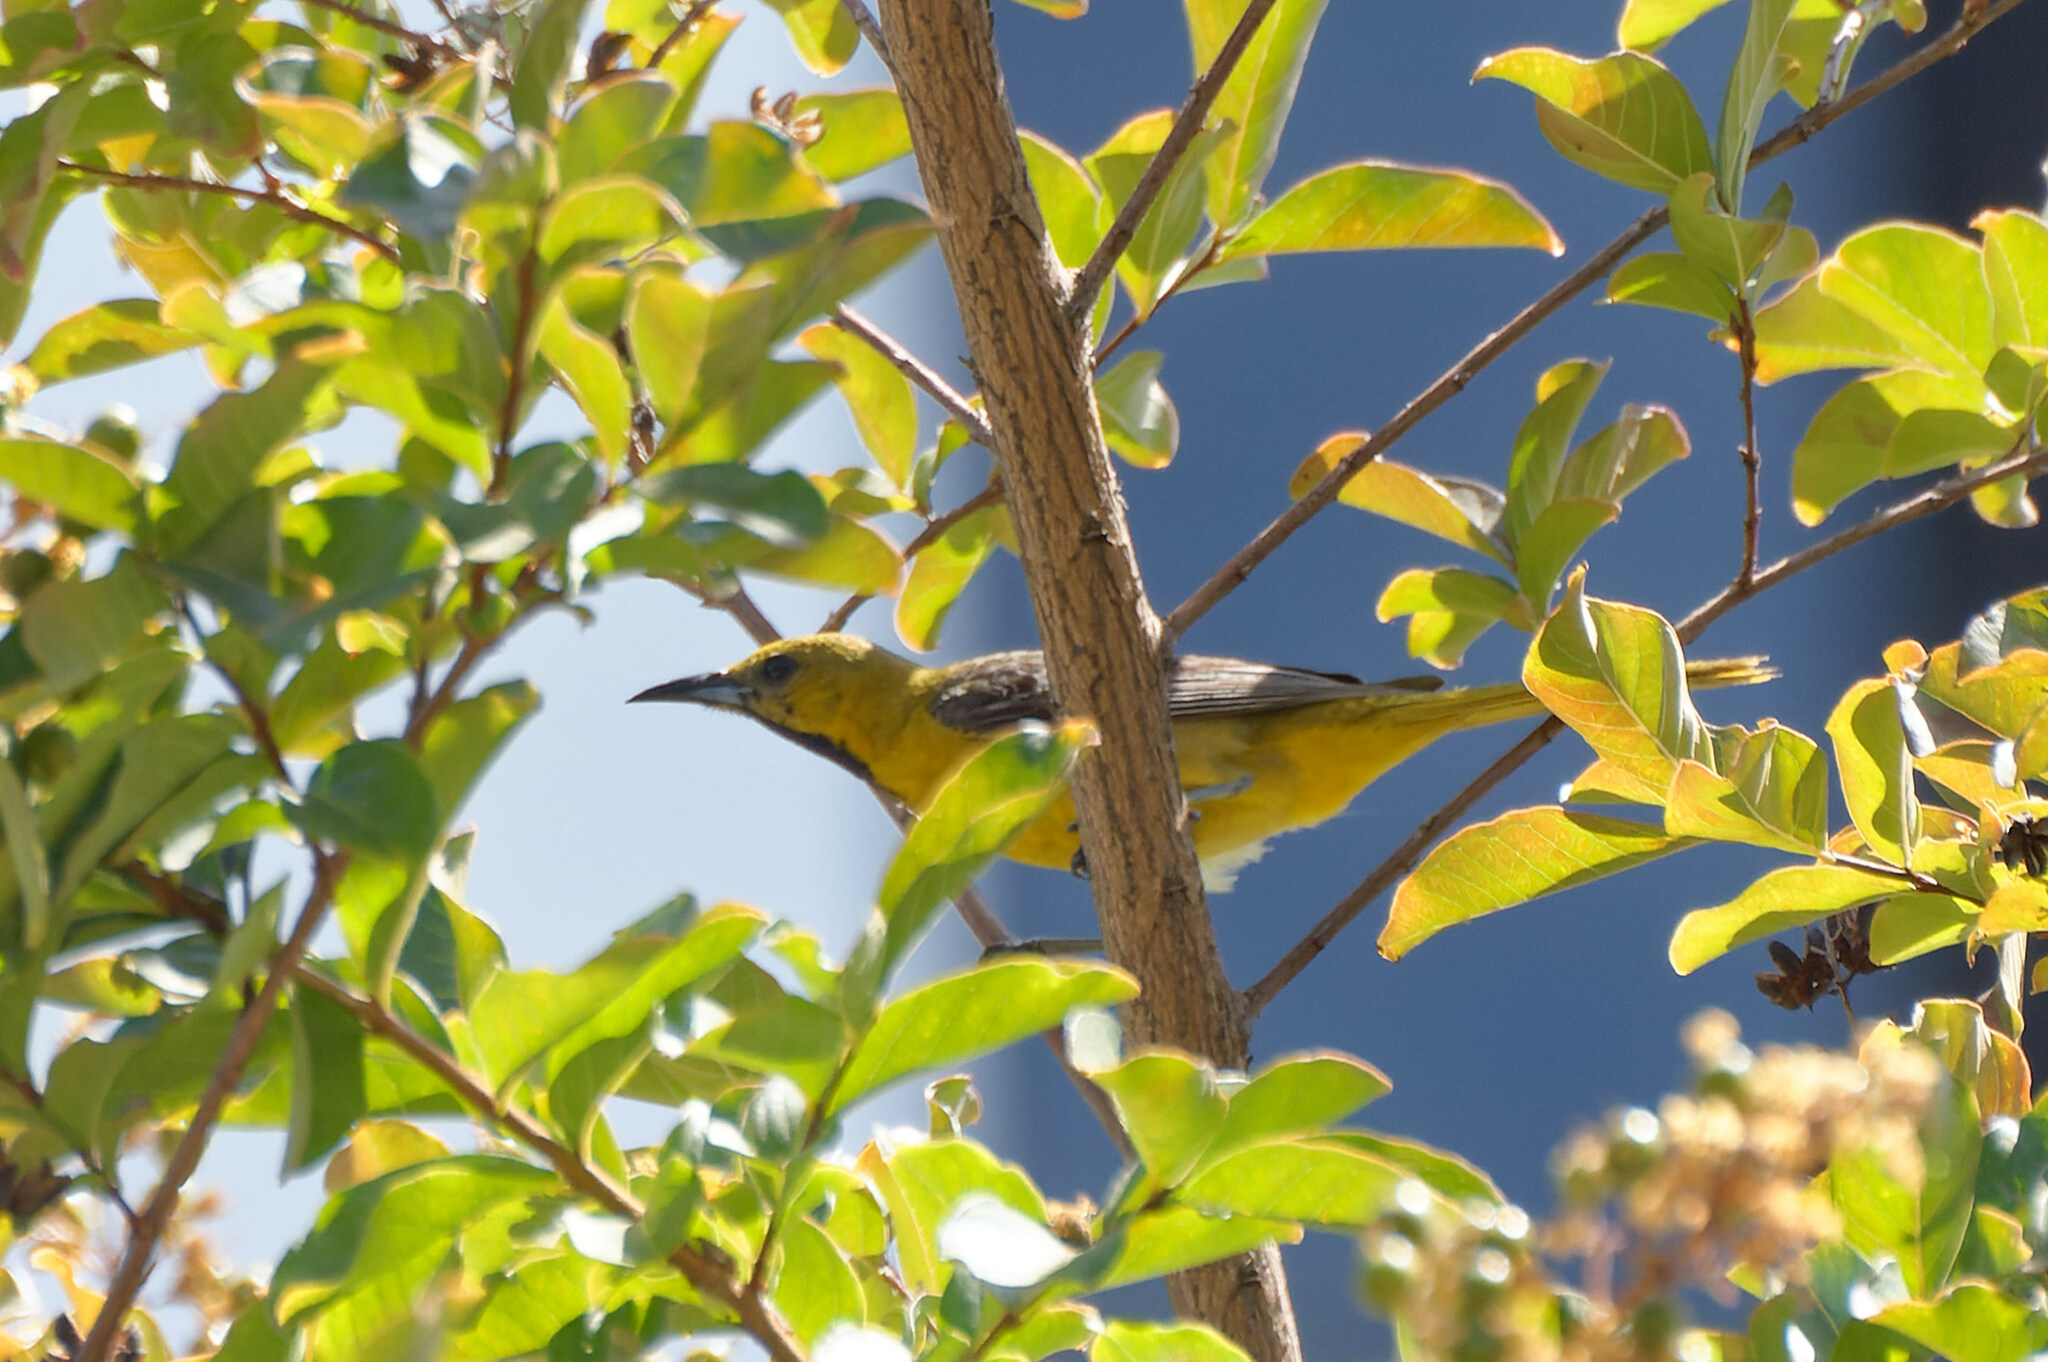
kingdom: Animalia
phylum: Chordata
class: Aves
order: Passeriformes
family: Icteridae
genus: Icterus
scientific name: Icterus cucullatus
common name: Hooded oriole
